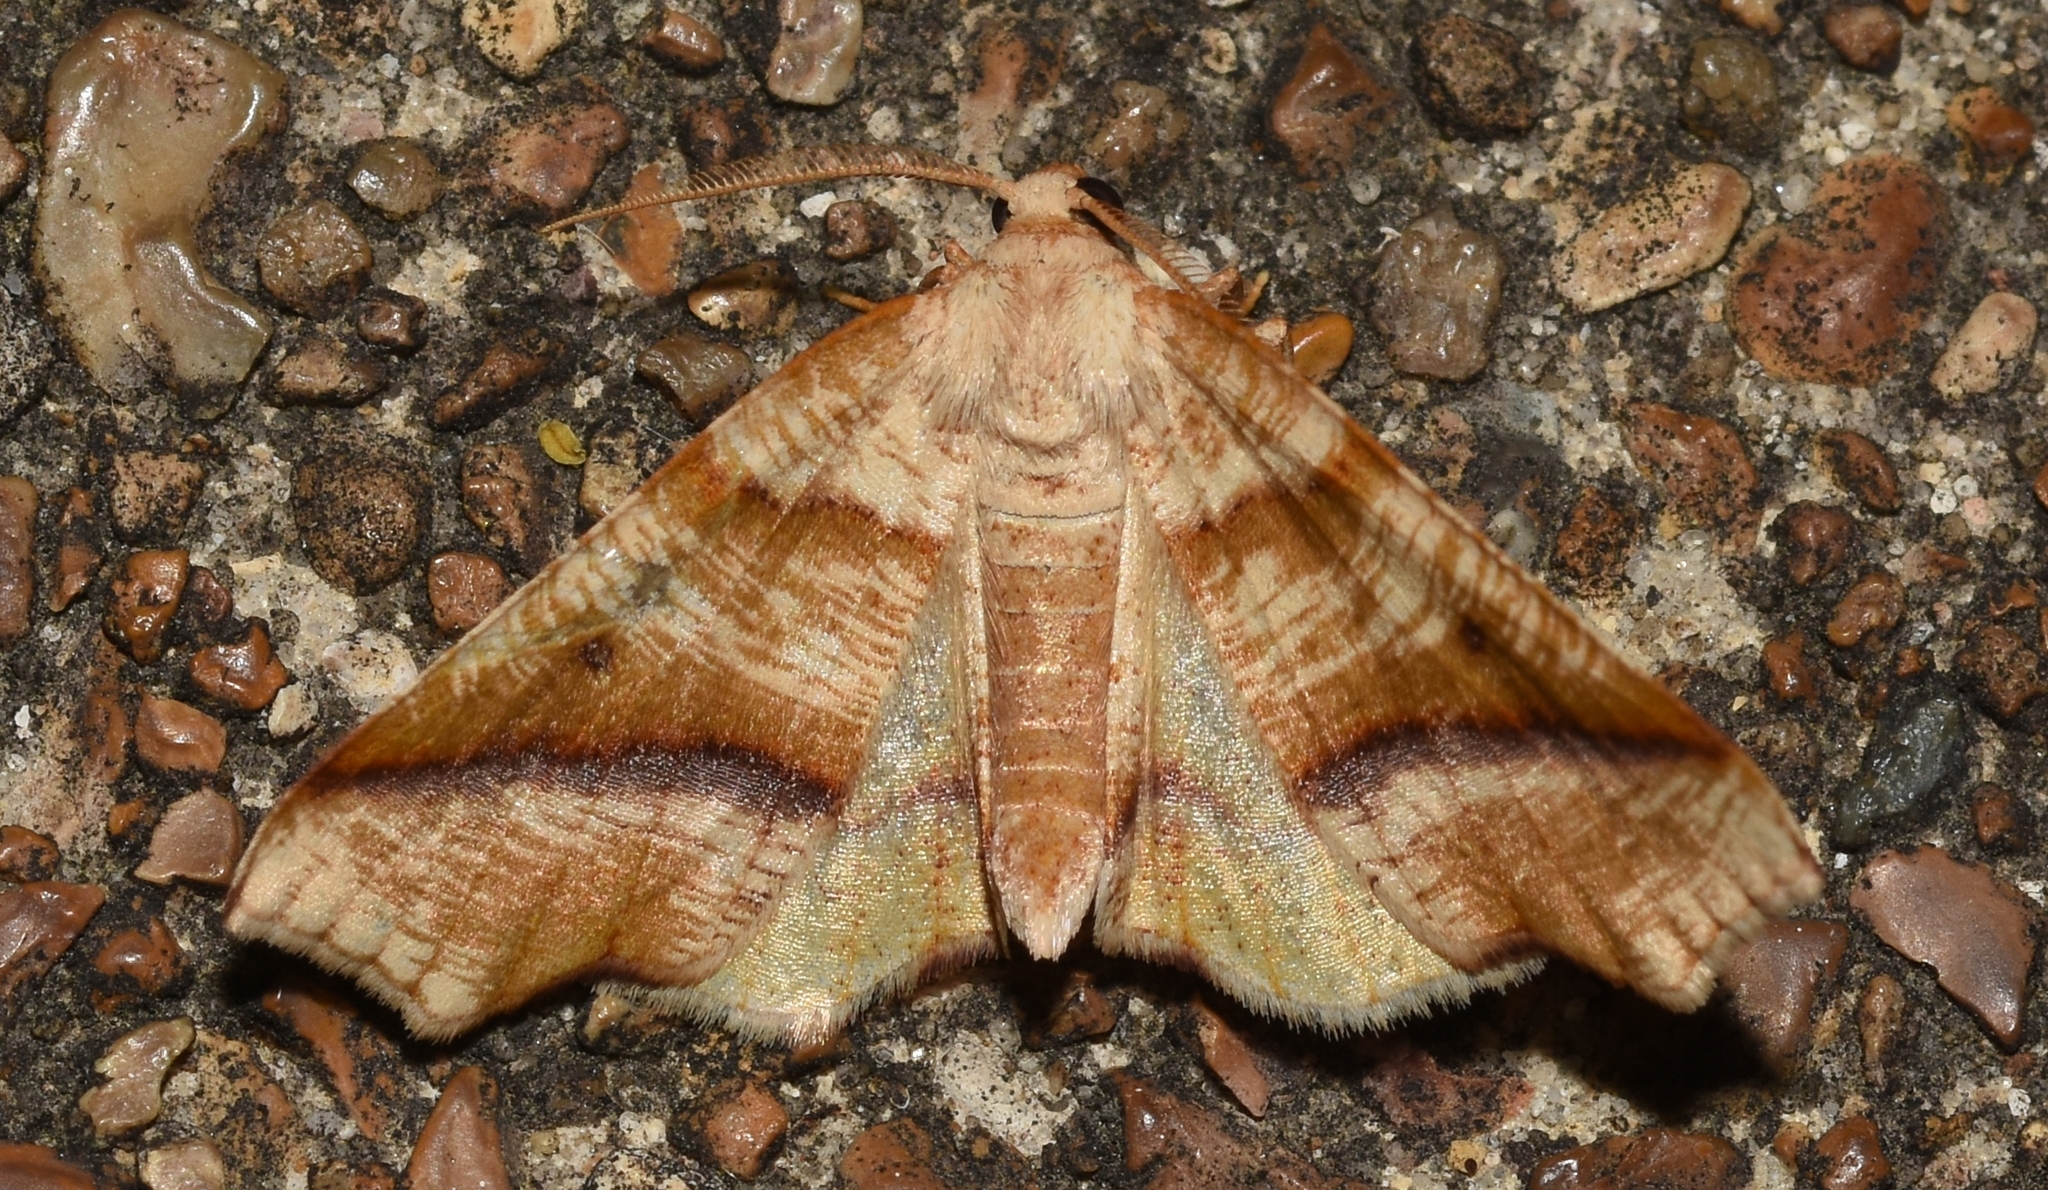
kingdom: Animalia
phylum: Arthropoda
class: Insecta
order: Lepidoptera
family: Geometridae
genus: Plagodis
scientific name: Plagodis alcoolaria
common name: Hollow-spotted plagodis
